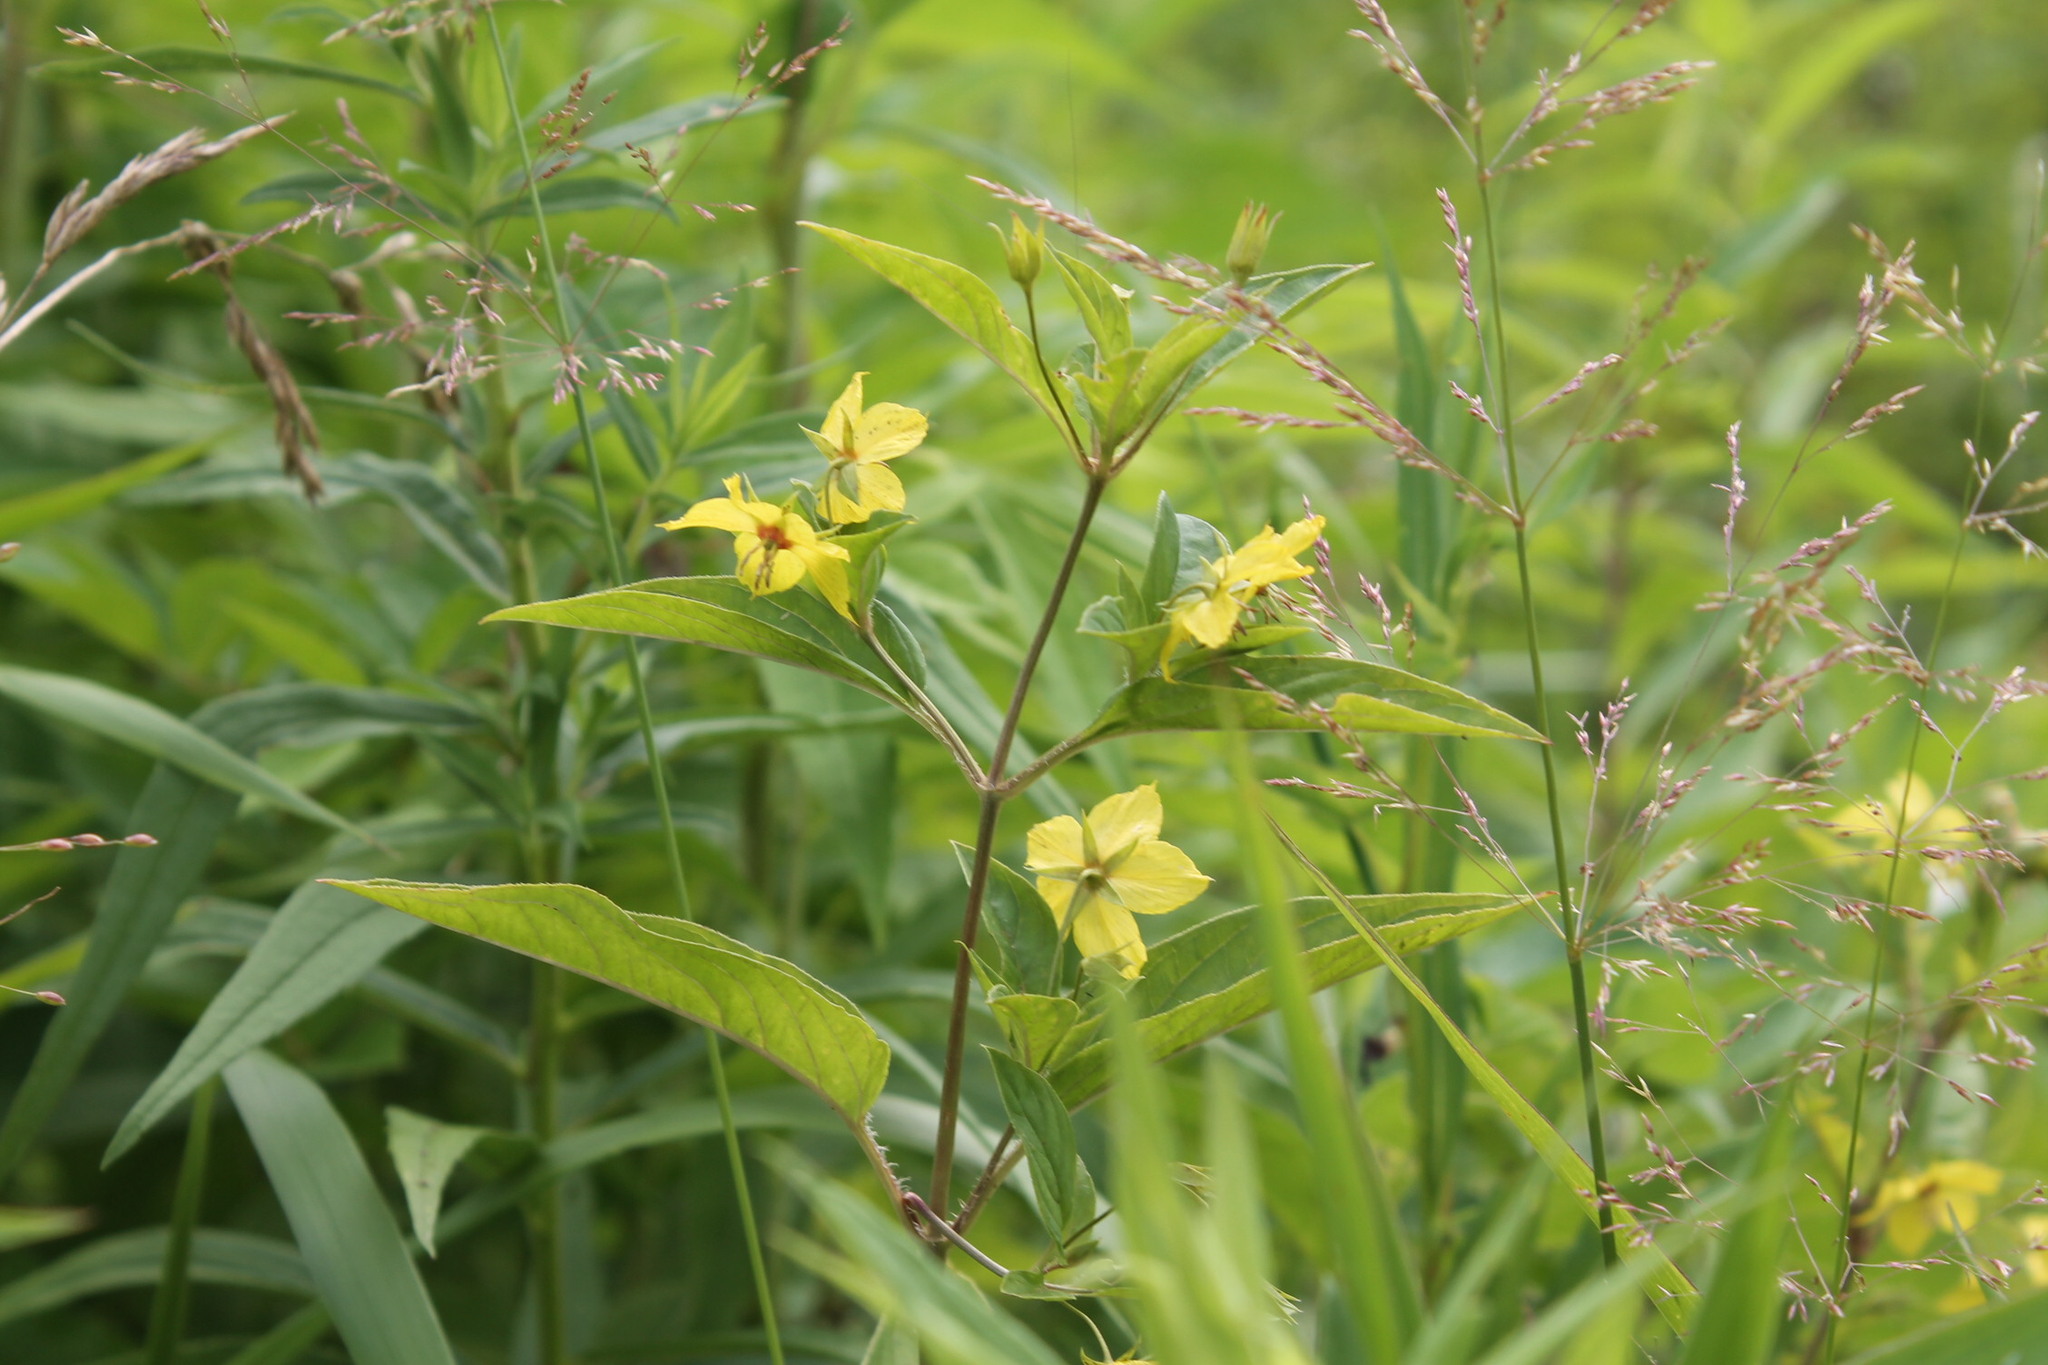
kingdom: Plantae
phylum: Tracheophyta
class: Magnoliopsida
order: Ericales
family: Primulaceae
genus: Lysimachia
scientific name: Lysimachia ciliata
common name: Fringed loosestrife
